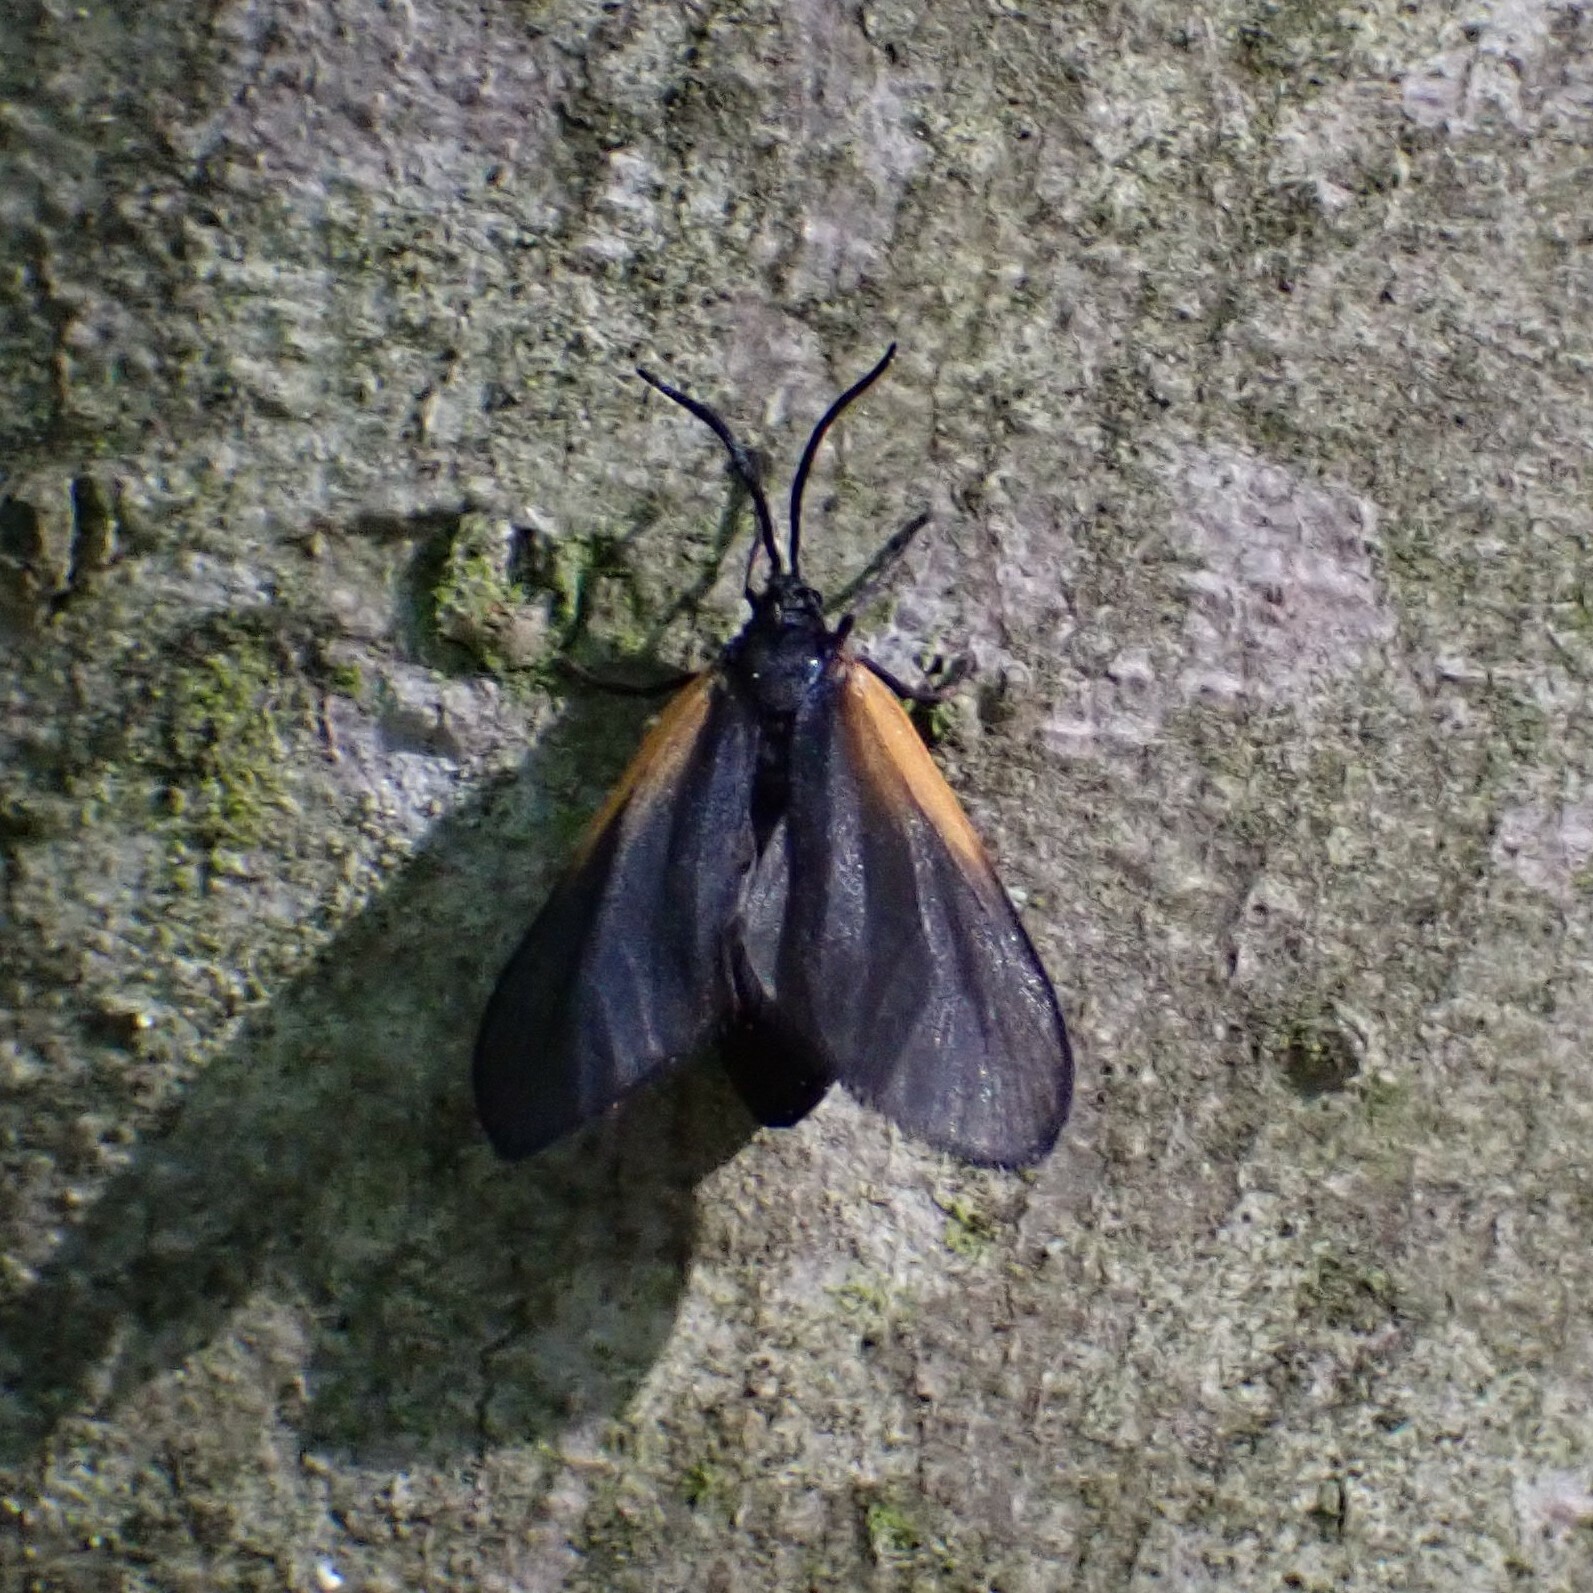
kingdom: Animalia
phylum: Arthropoda
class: Insecta
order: Lepidoptera
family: Zygaenidae
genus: Malthaca
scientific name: Malthaca dimidiata
